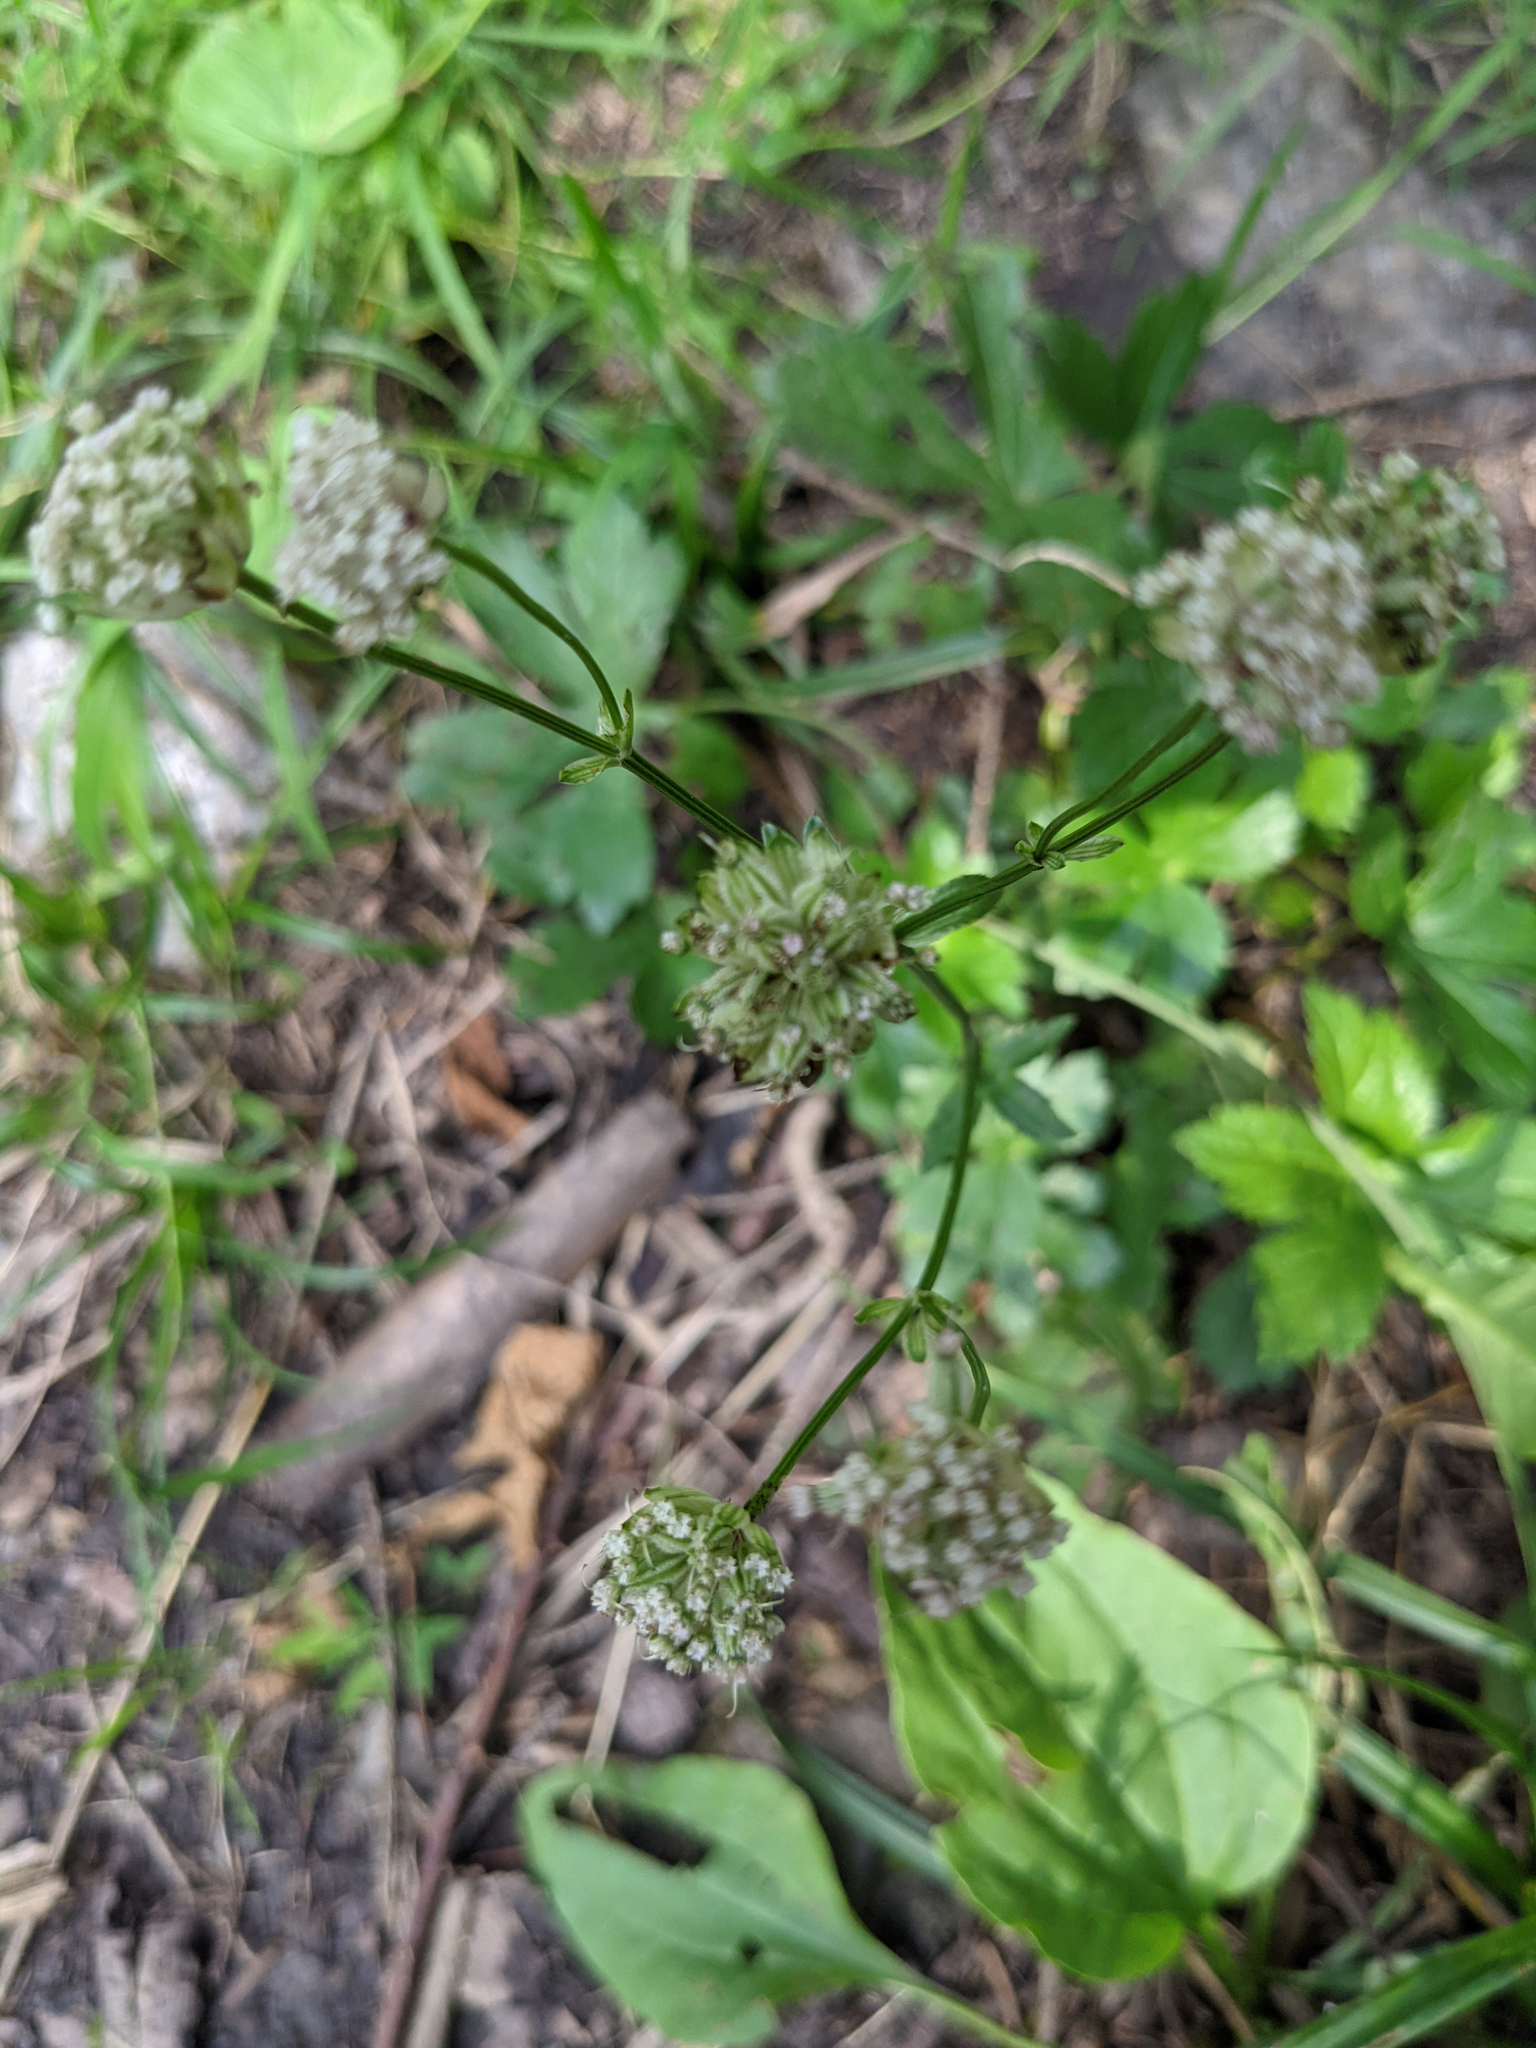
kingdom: Plantae
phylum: Tracheophyta
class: Magnoliopsida
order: Apiales
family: Apiaceae
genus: Astrantia
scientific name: Astrantia major
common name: Greater masterwort
